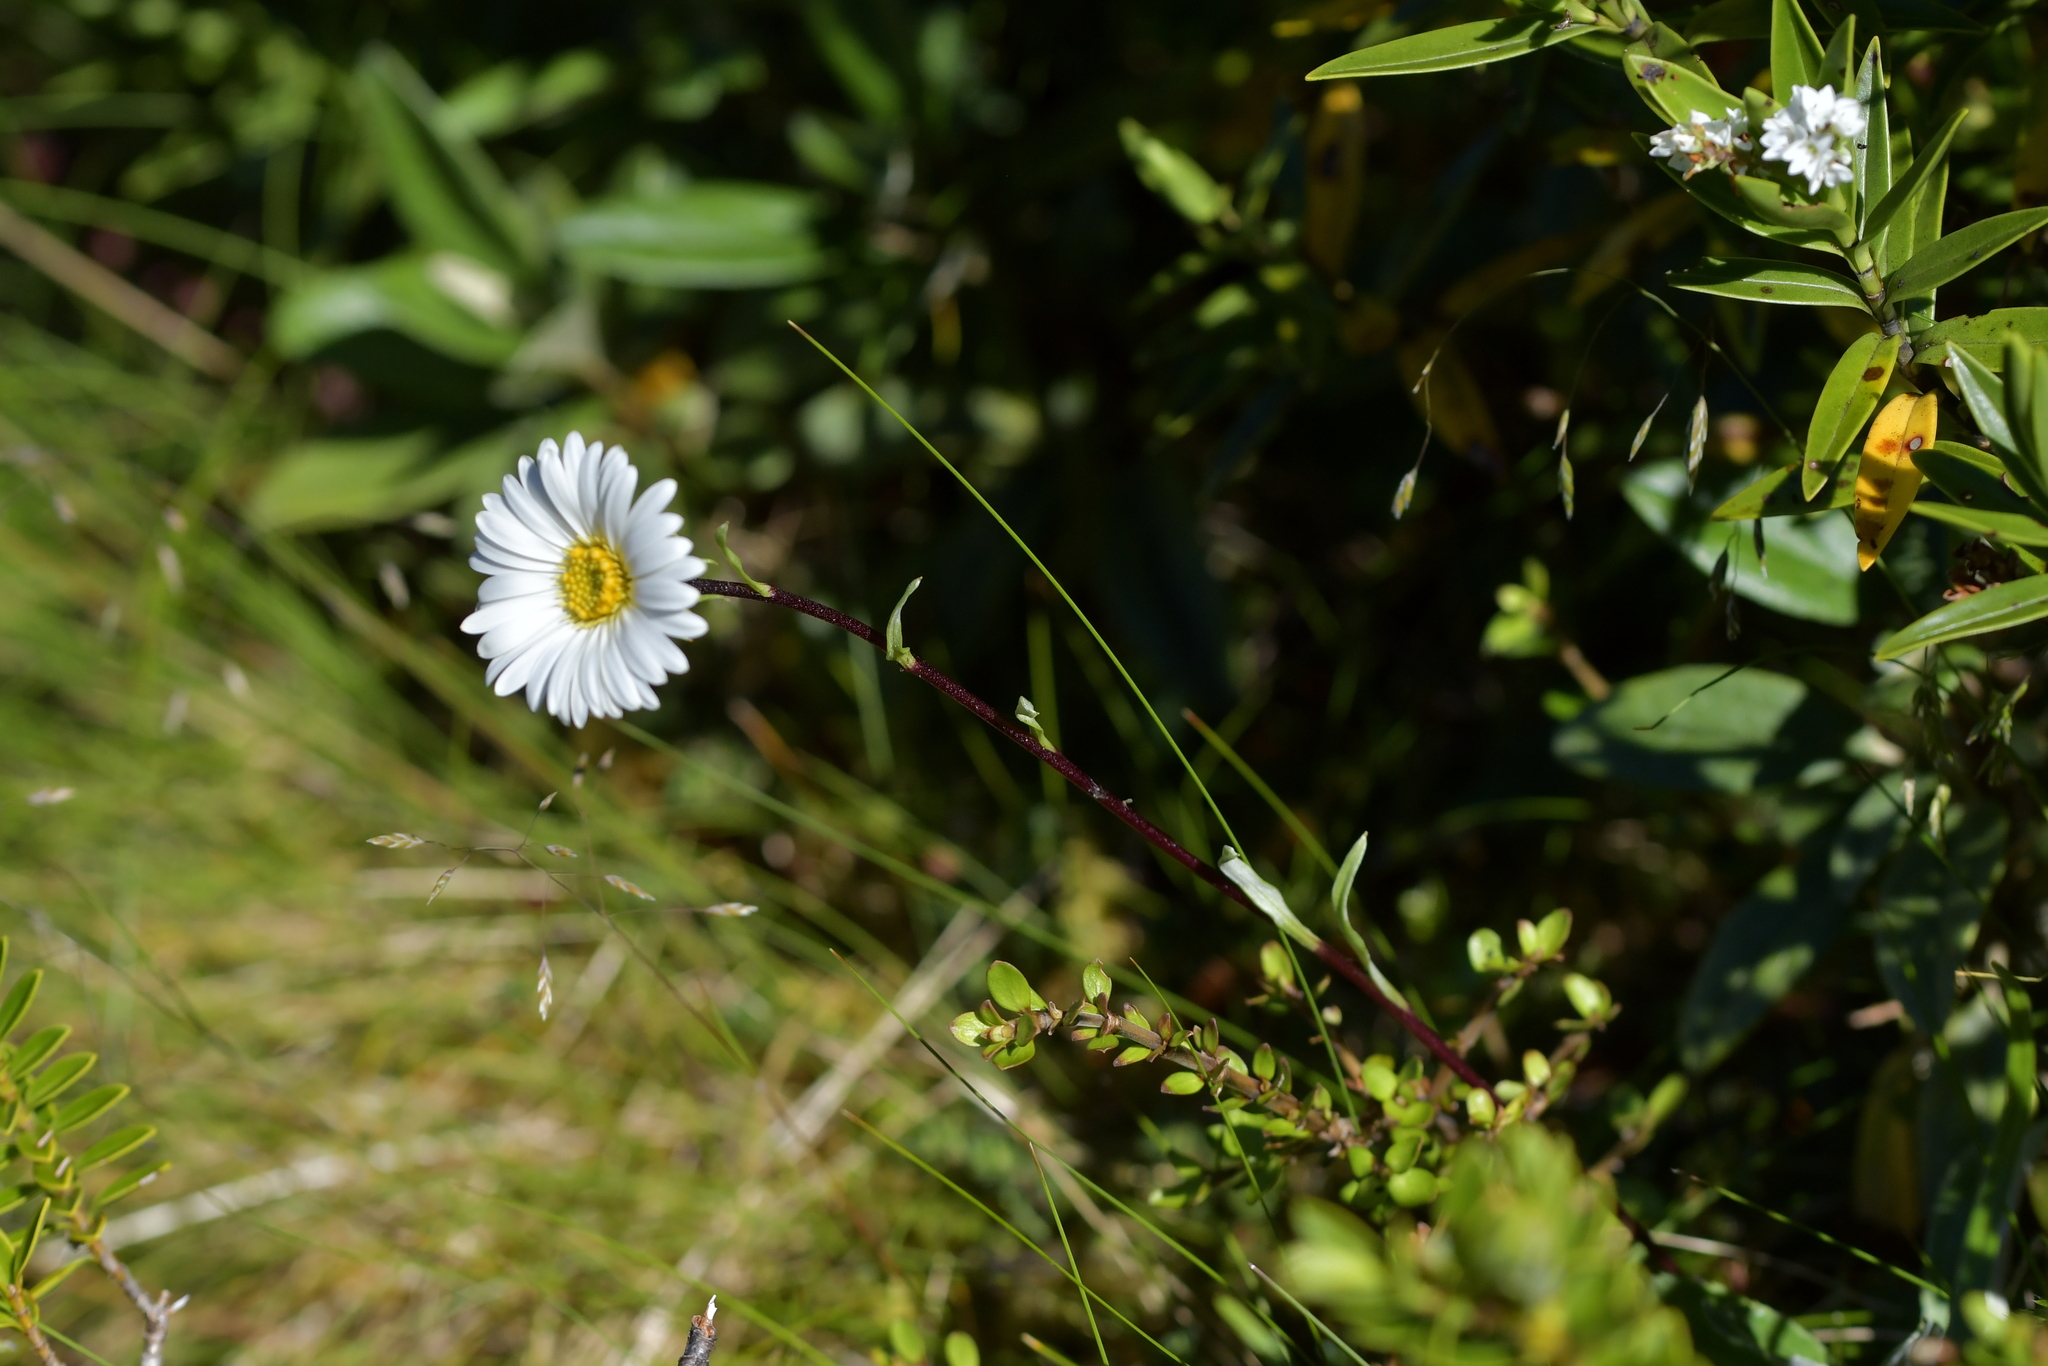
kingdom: Plantae
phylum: Tracheophyta
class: Magnoliopsida
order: Asterales
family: Asteraceae
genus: Celmisia
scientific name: Celmisia durietzii
